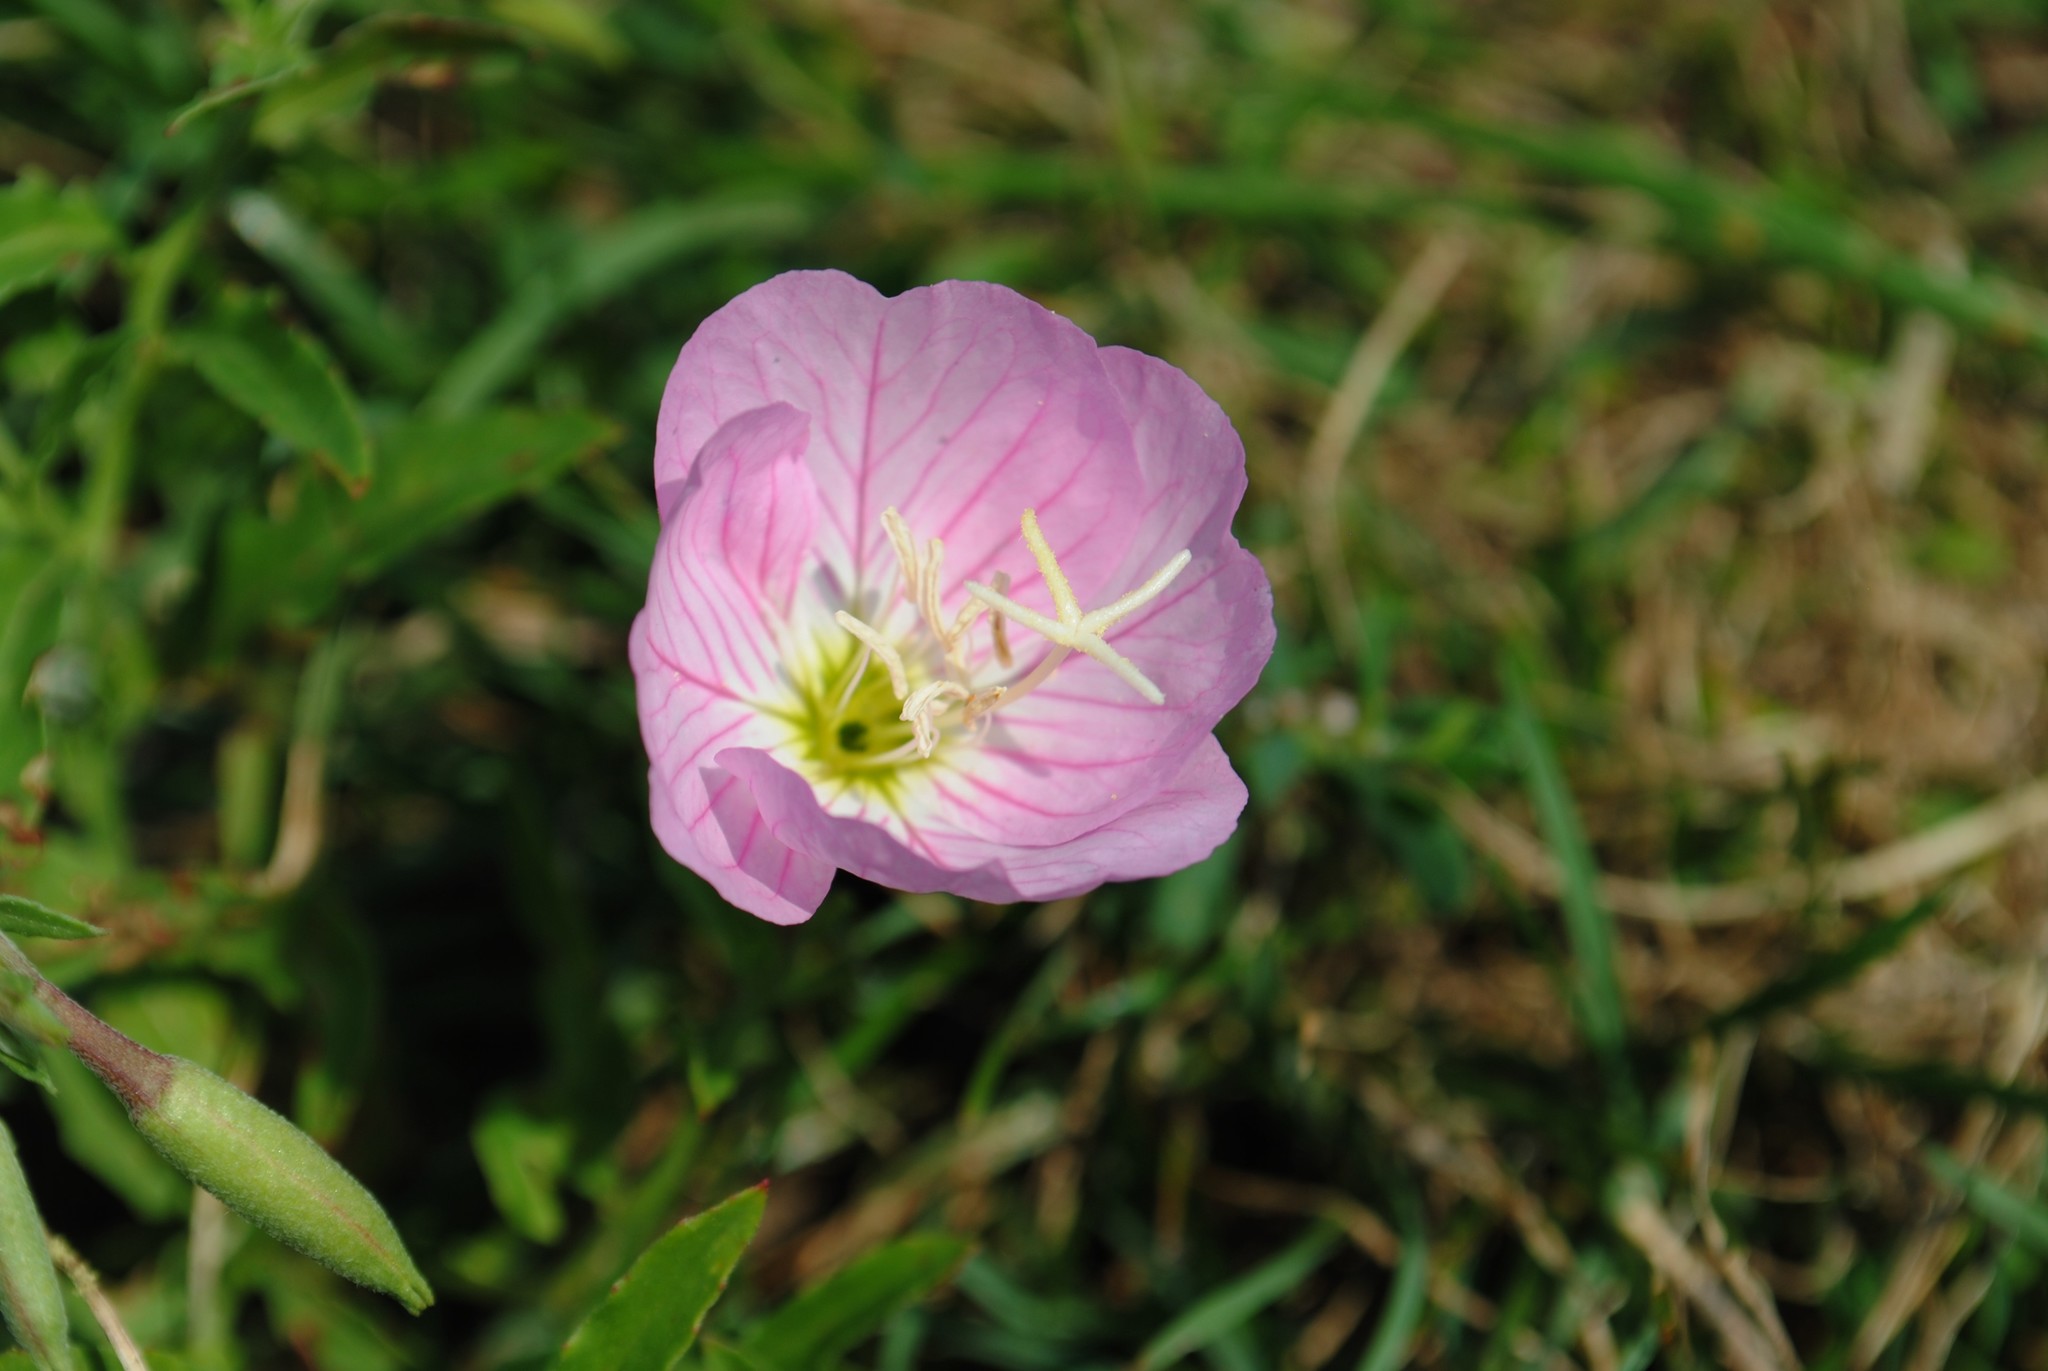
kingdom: Plantae
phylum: Tracheophyta
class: Magnoliopsida
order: Myrtales
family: Onagraceae
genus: Oenothera
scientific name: Oenothera speciosa
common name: White evening-primrose
